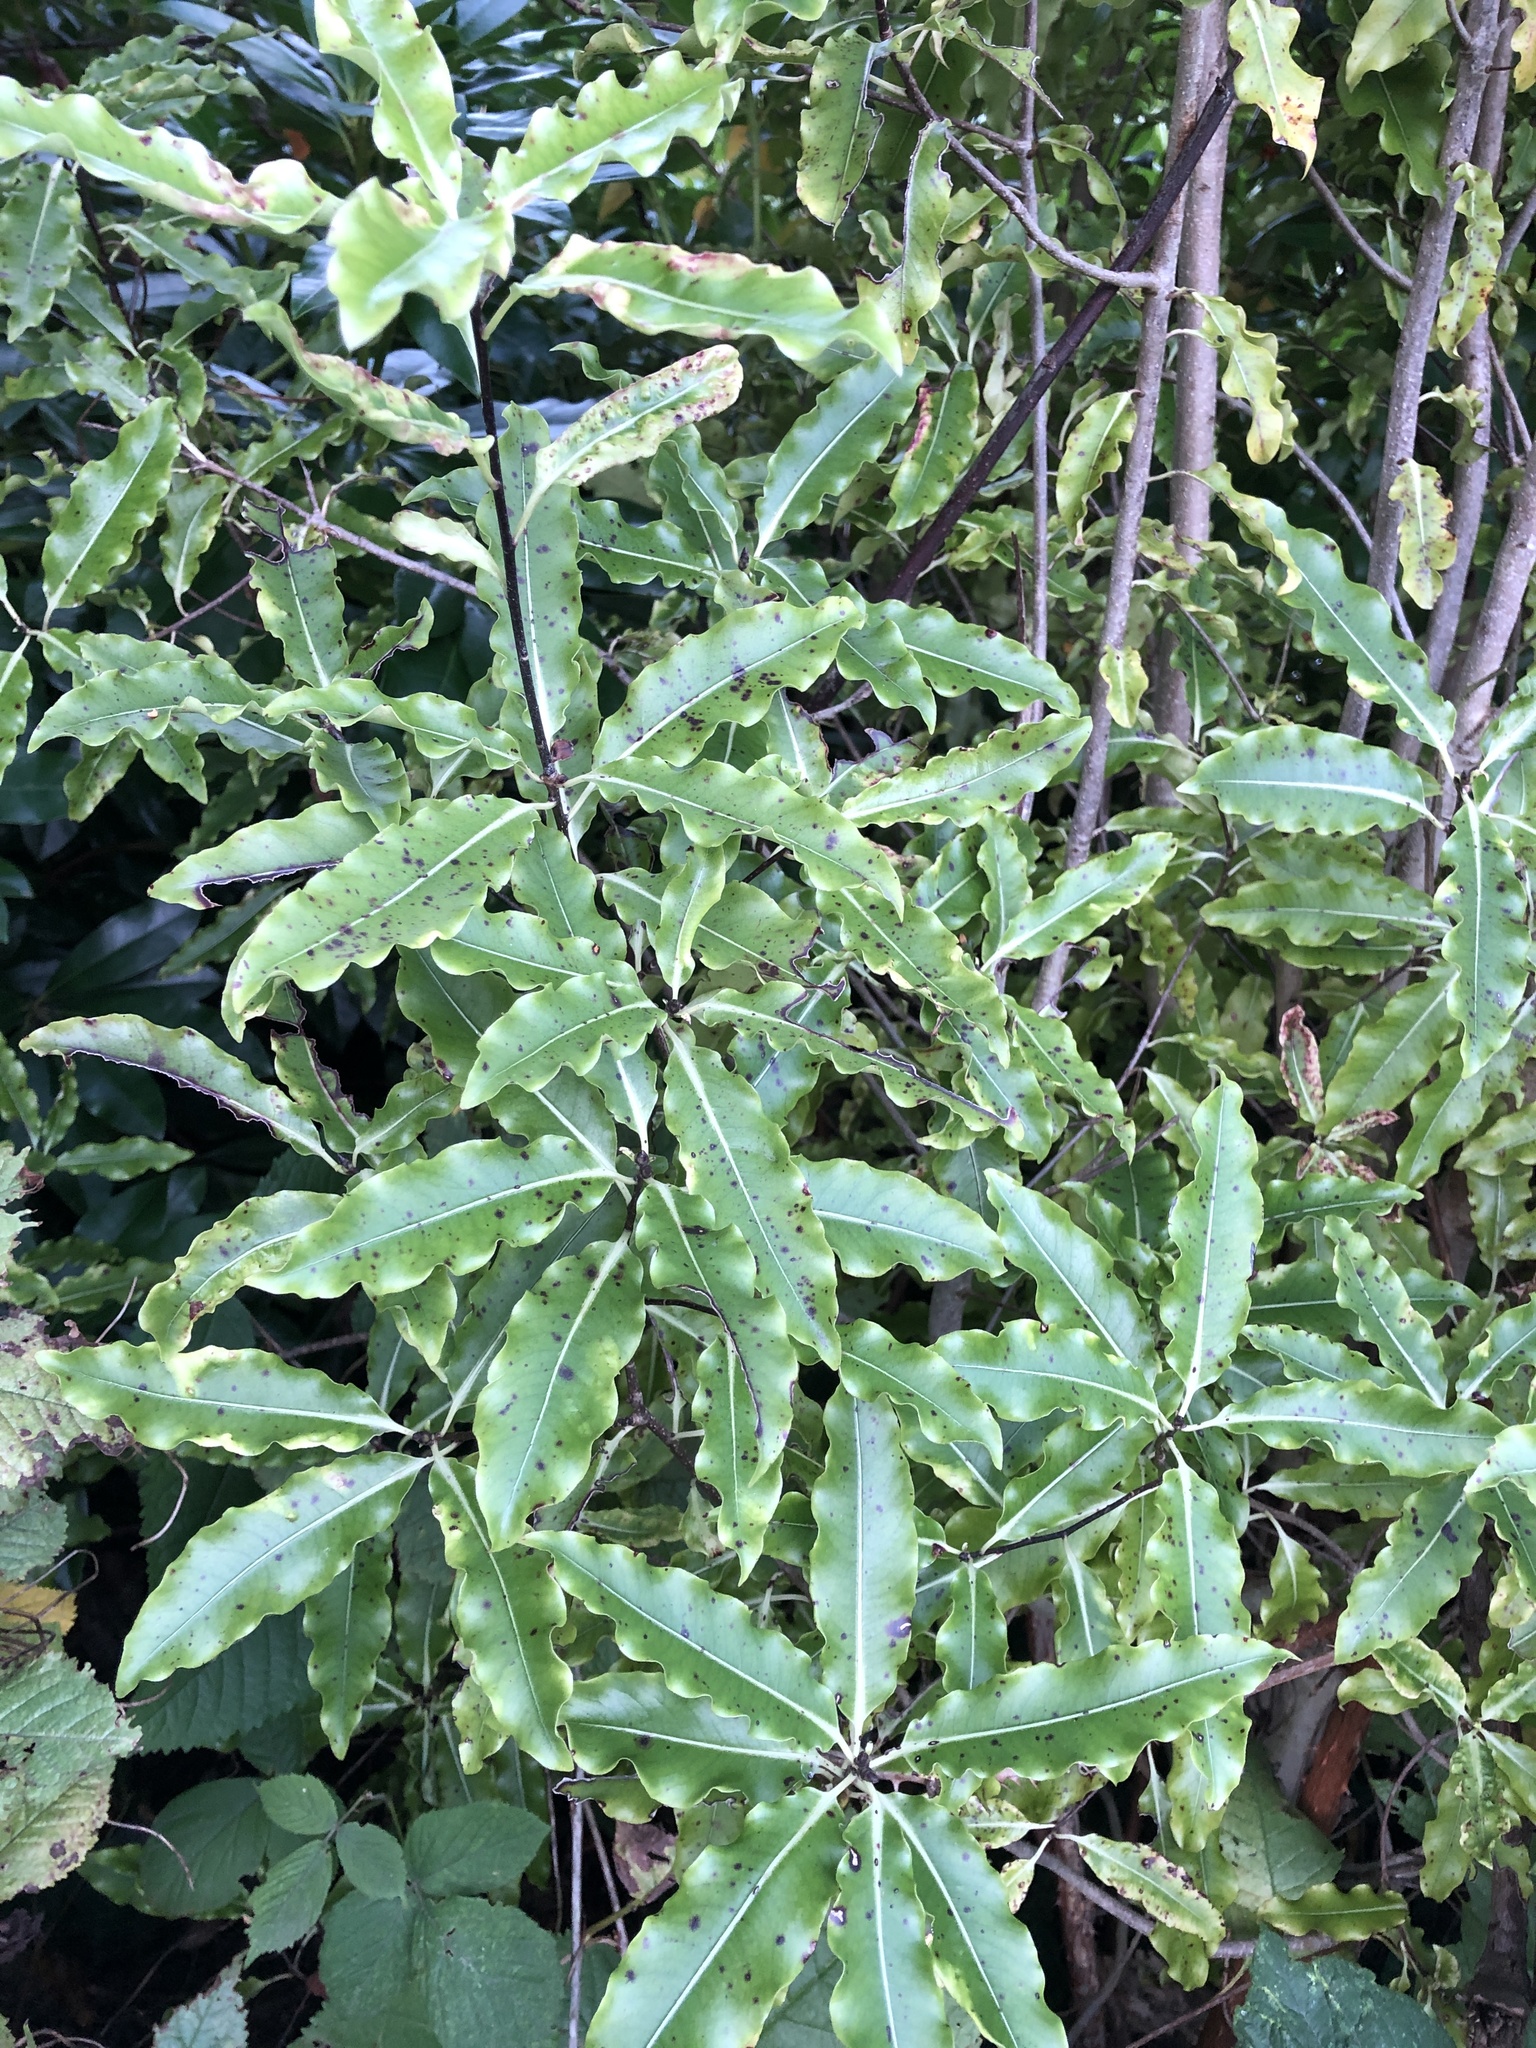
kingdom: Plantae
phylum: Tracheophyta
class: Magnoliopsida
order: Apiales
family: Pittosporaceae
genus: Pittosporum
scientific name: Pittosporum eugenioides
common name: Lemonwood
